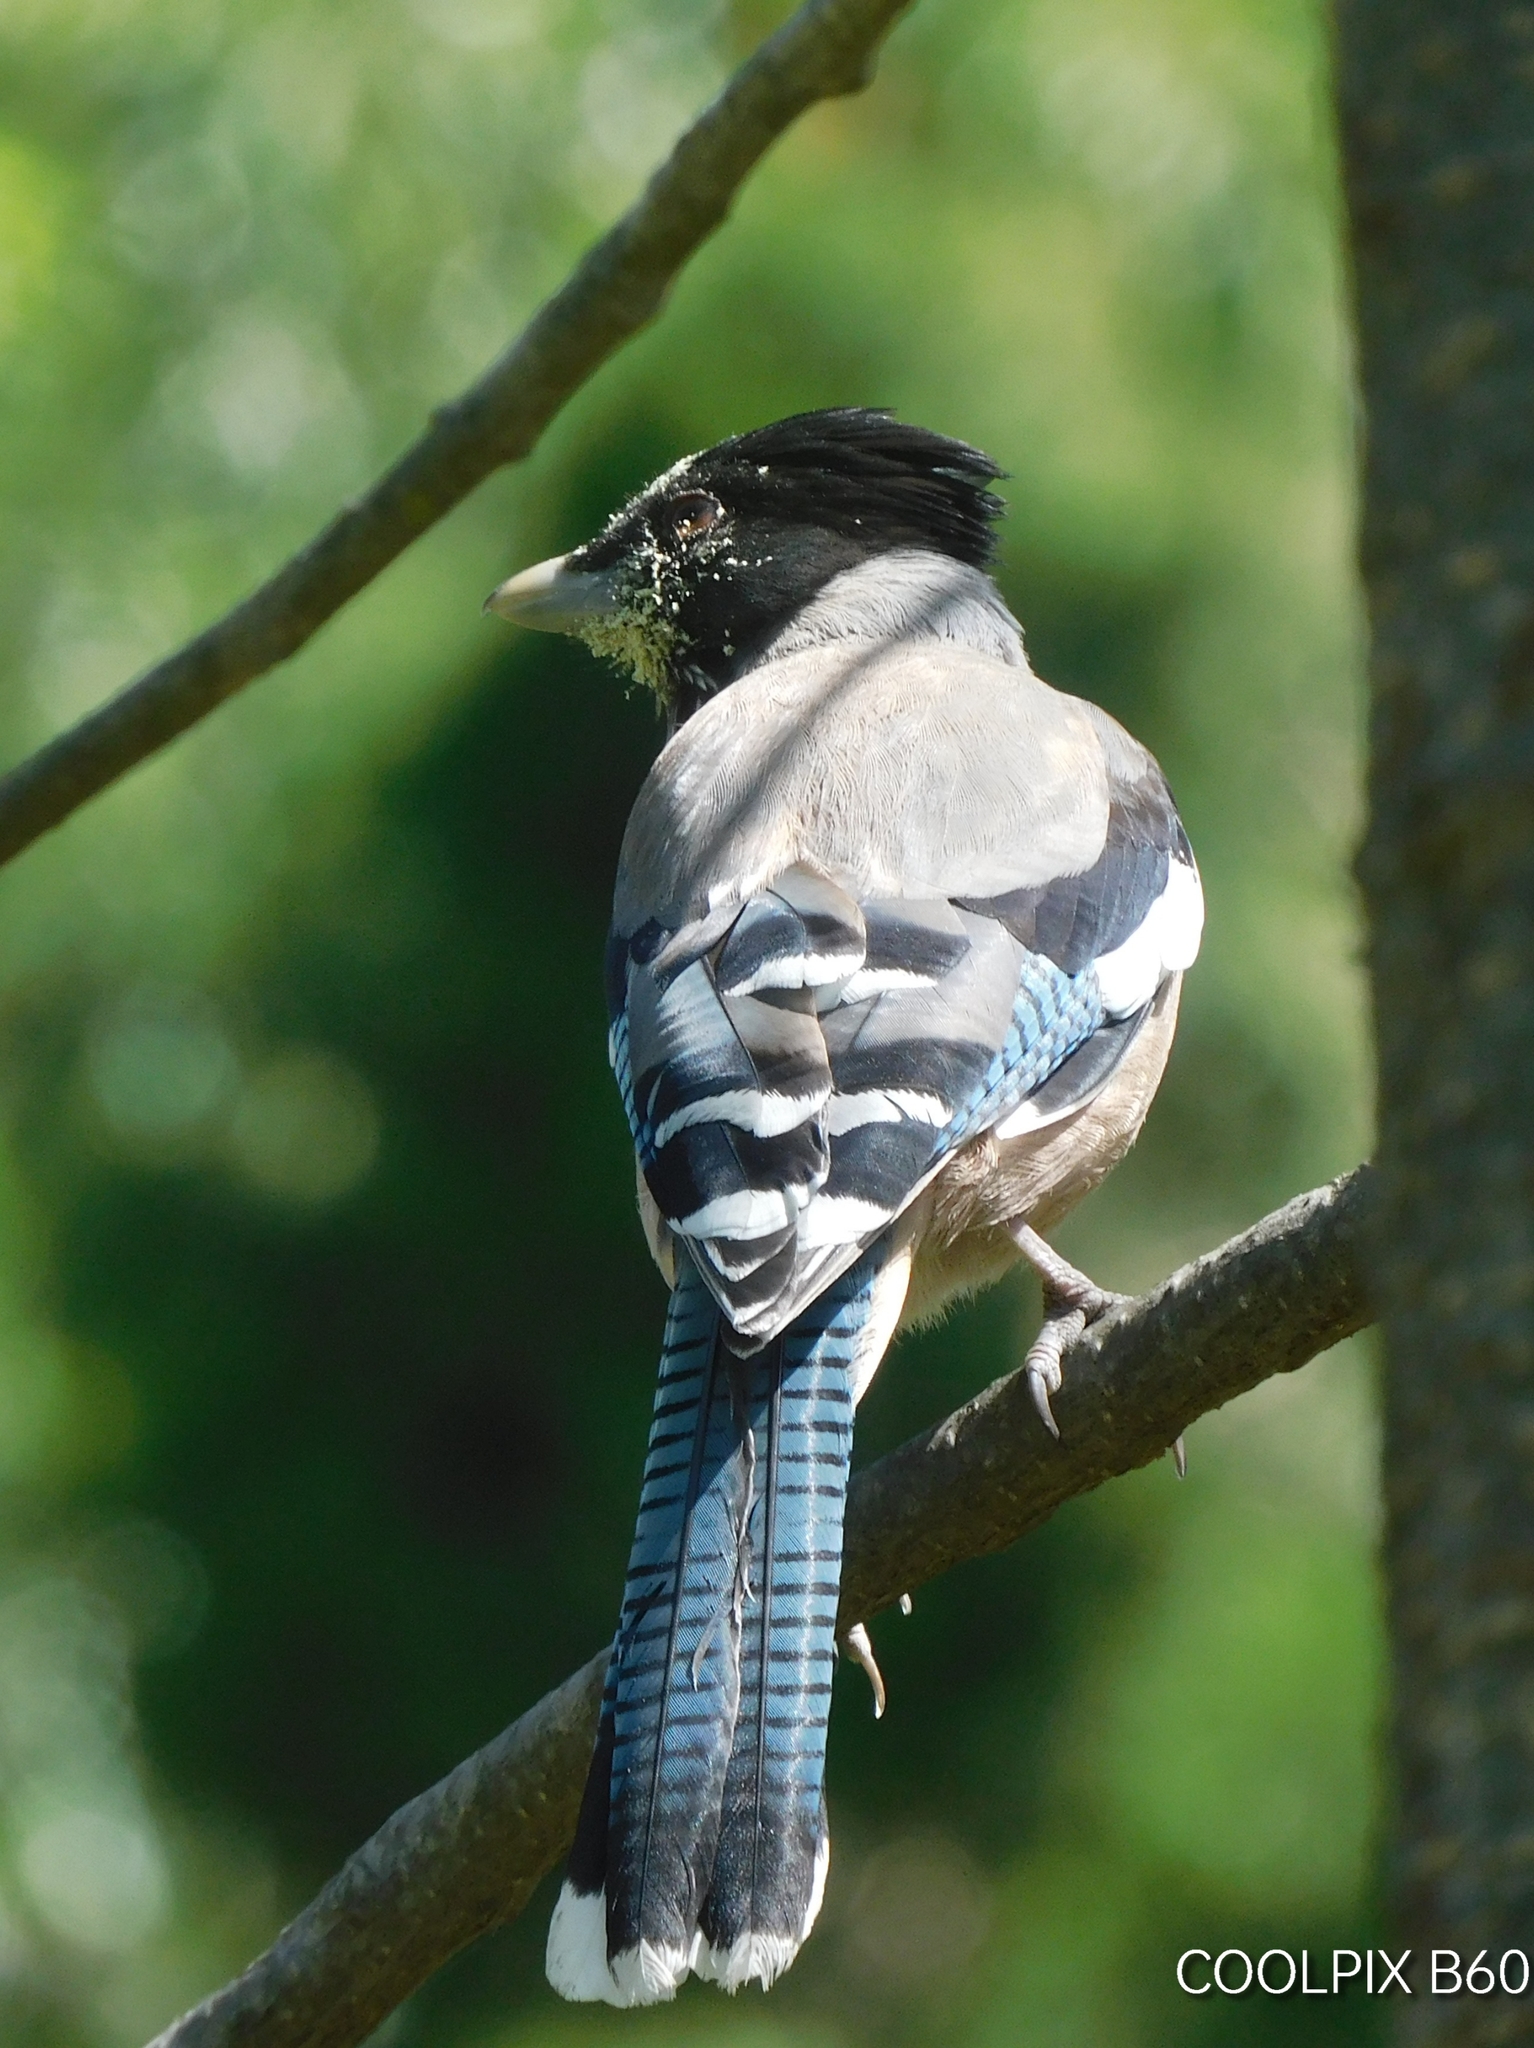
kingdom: Animalia
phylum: Chordata
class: Aves
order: Passeriformes
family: Corvidae
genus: Garrulus
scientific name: Garrulus lanceolatus
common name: Black-headed jay
